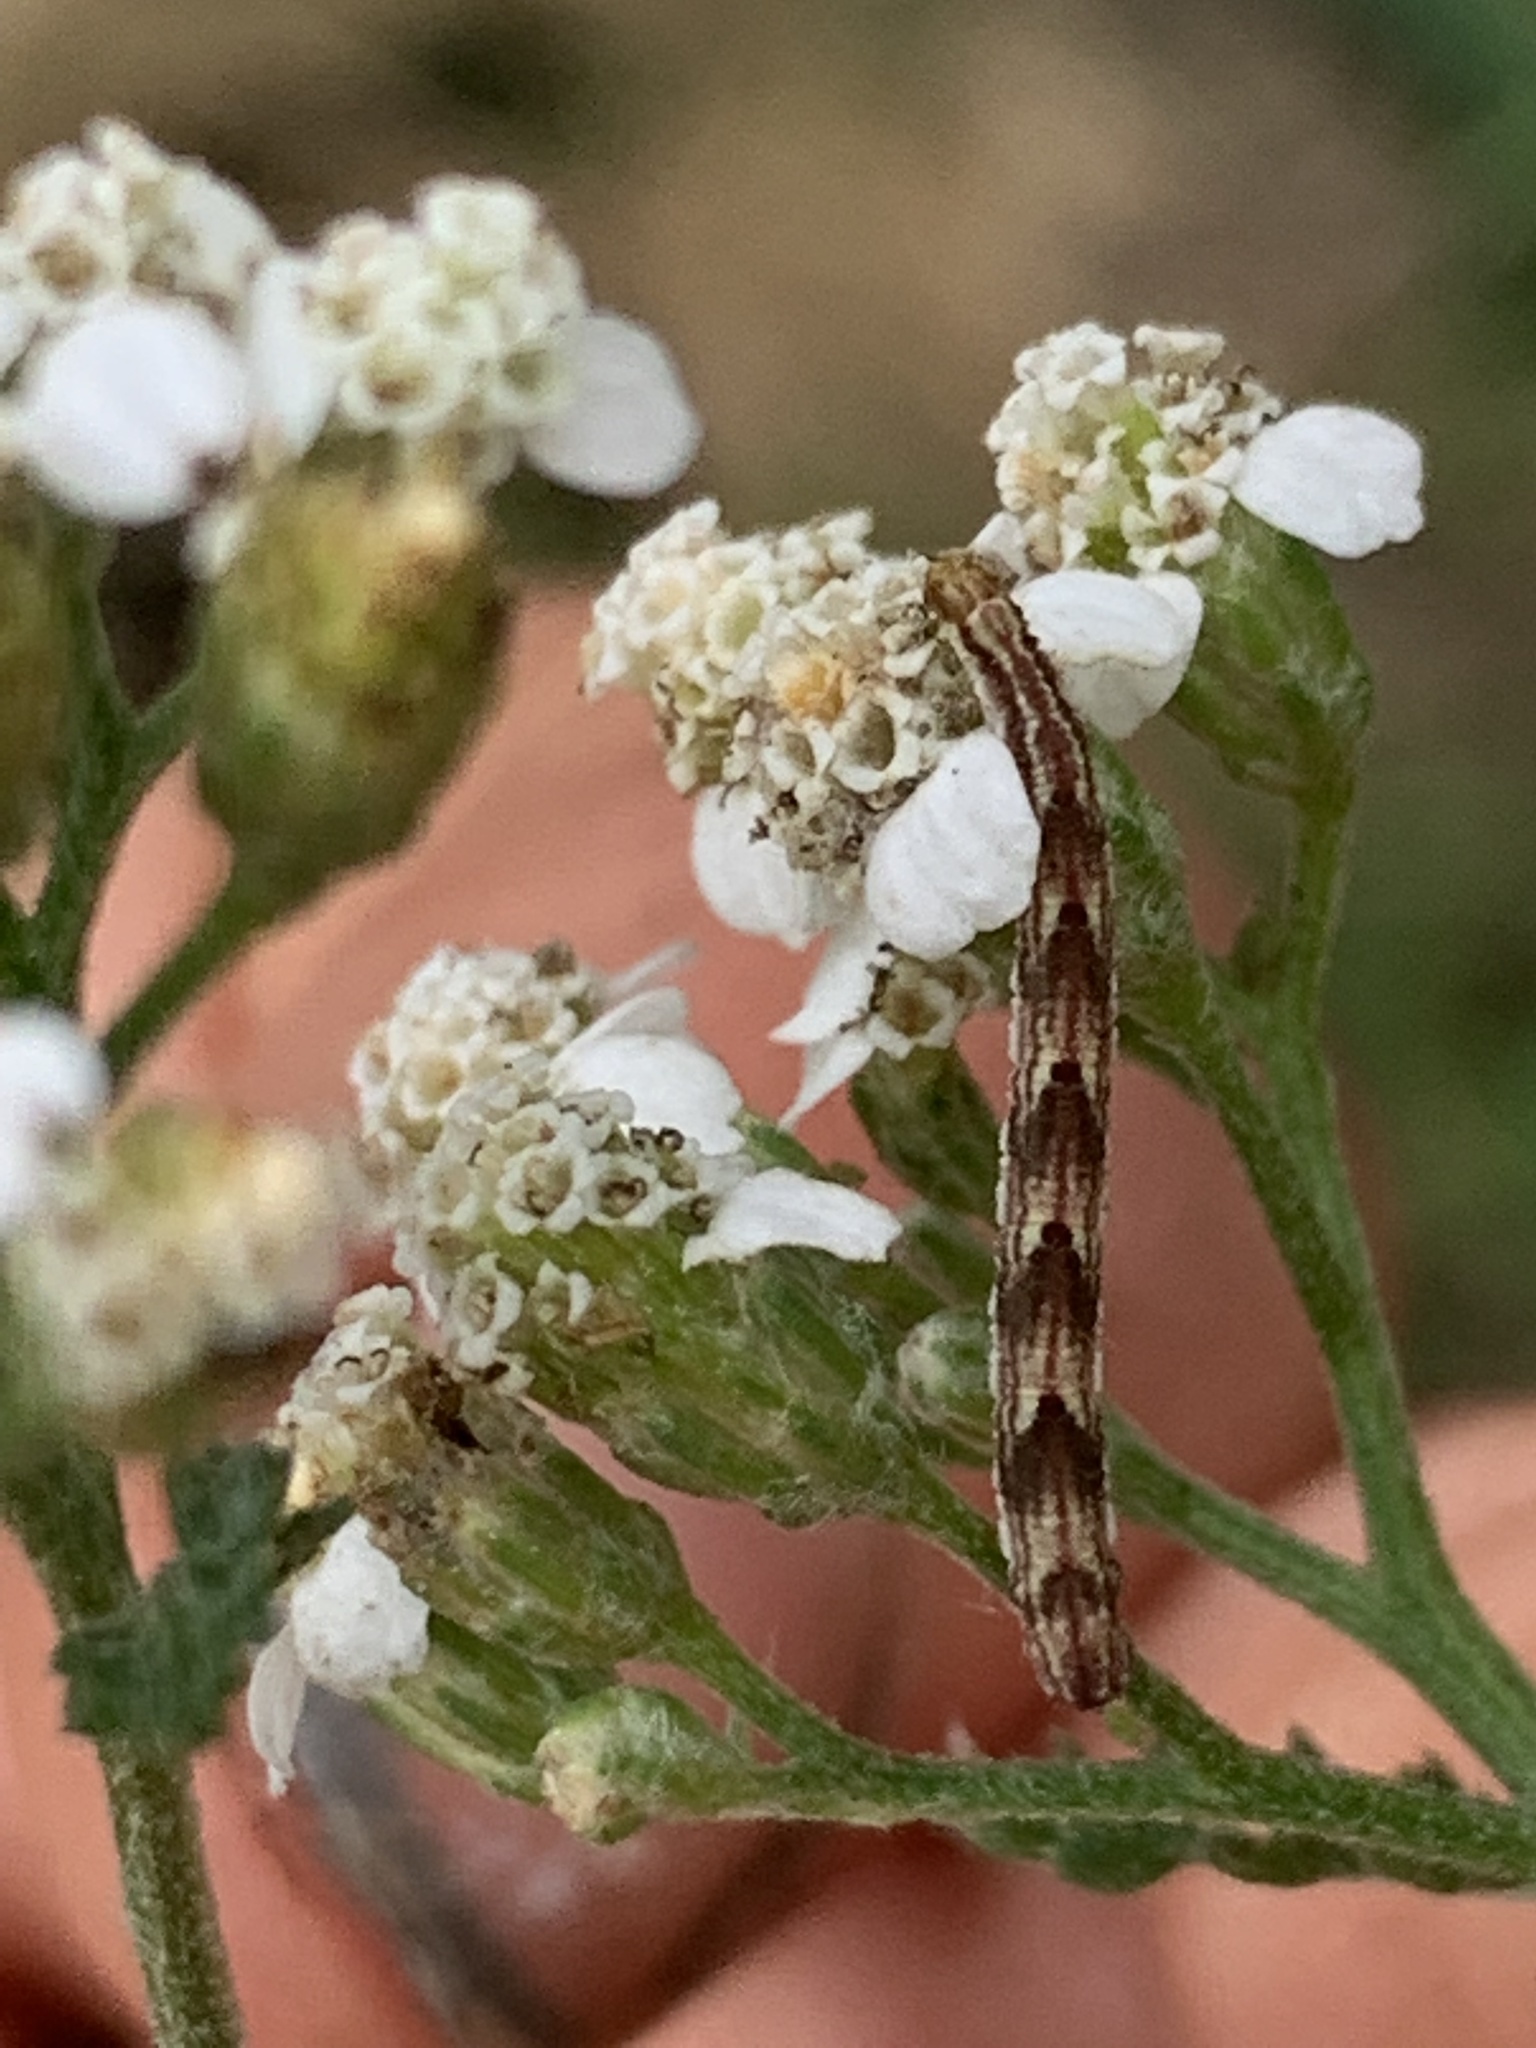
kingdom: Animalia
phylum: Arthropoda
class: Insecta
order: Lepidoptera
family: Geometridae
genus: Eupithecia
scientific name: Eupithecia miserulata
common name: Common eupithecia
